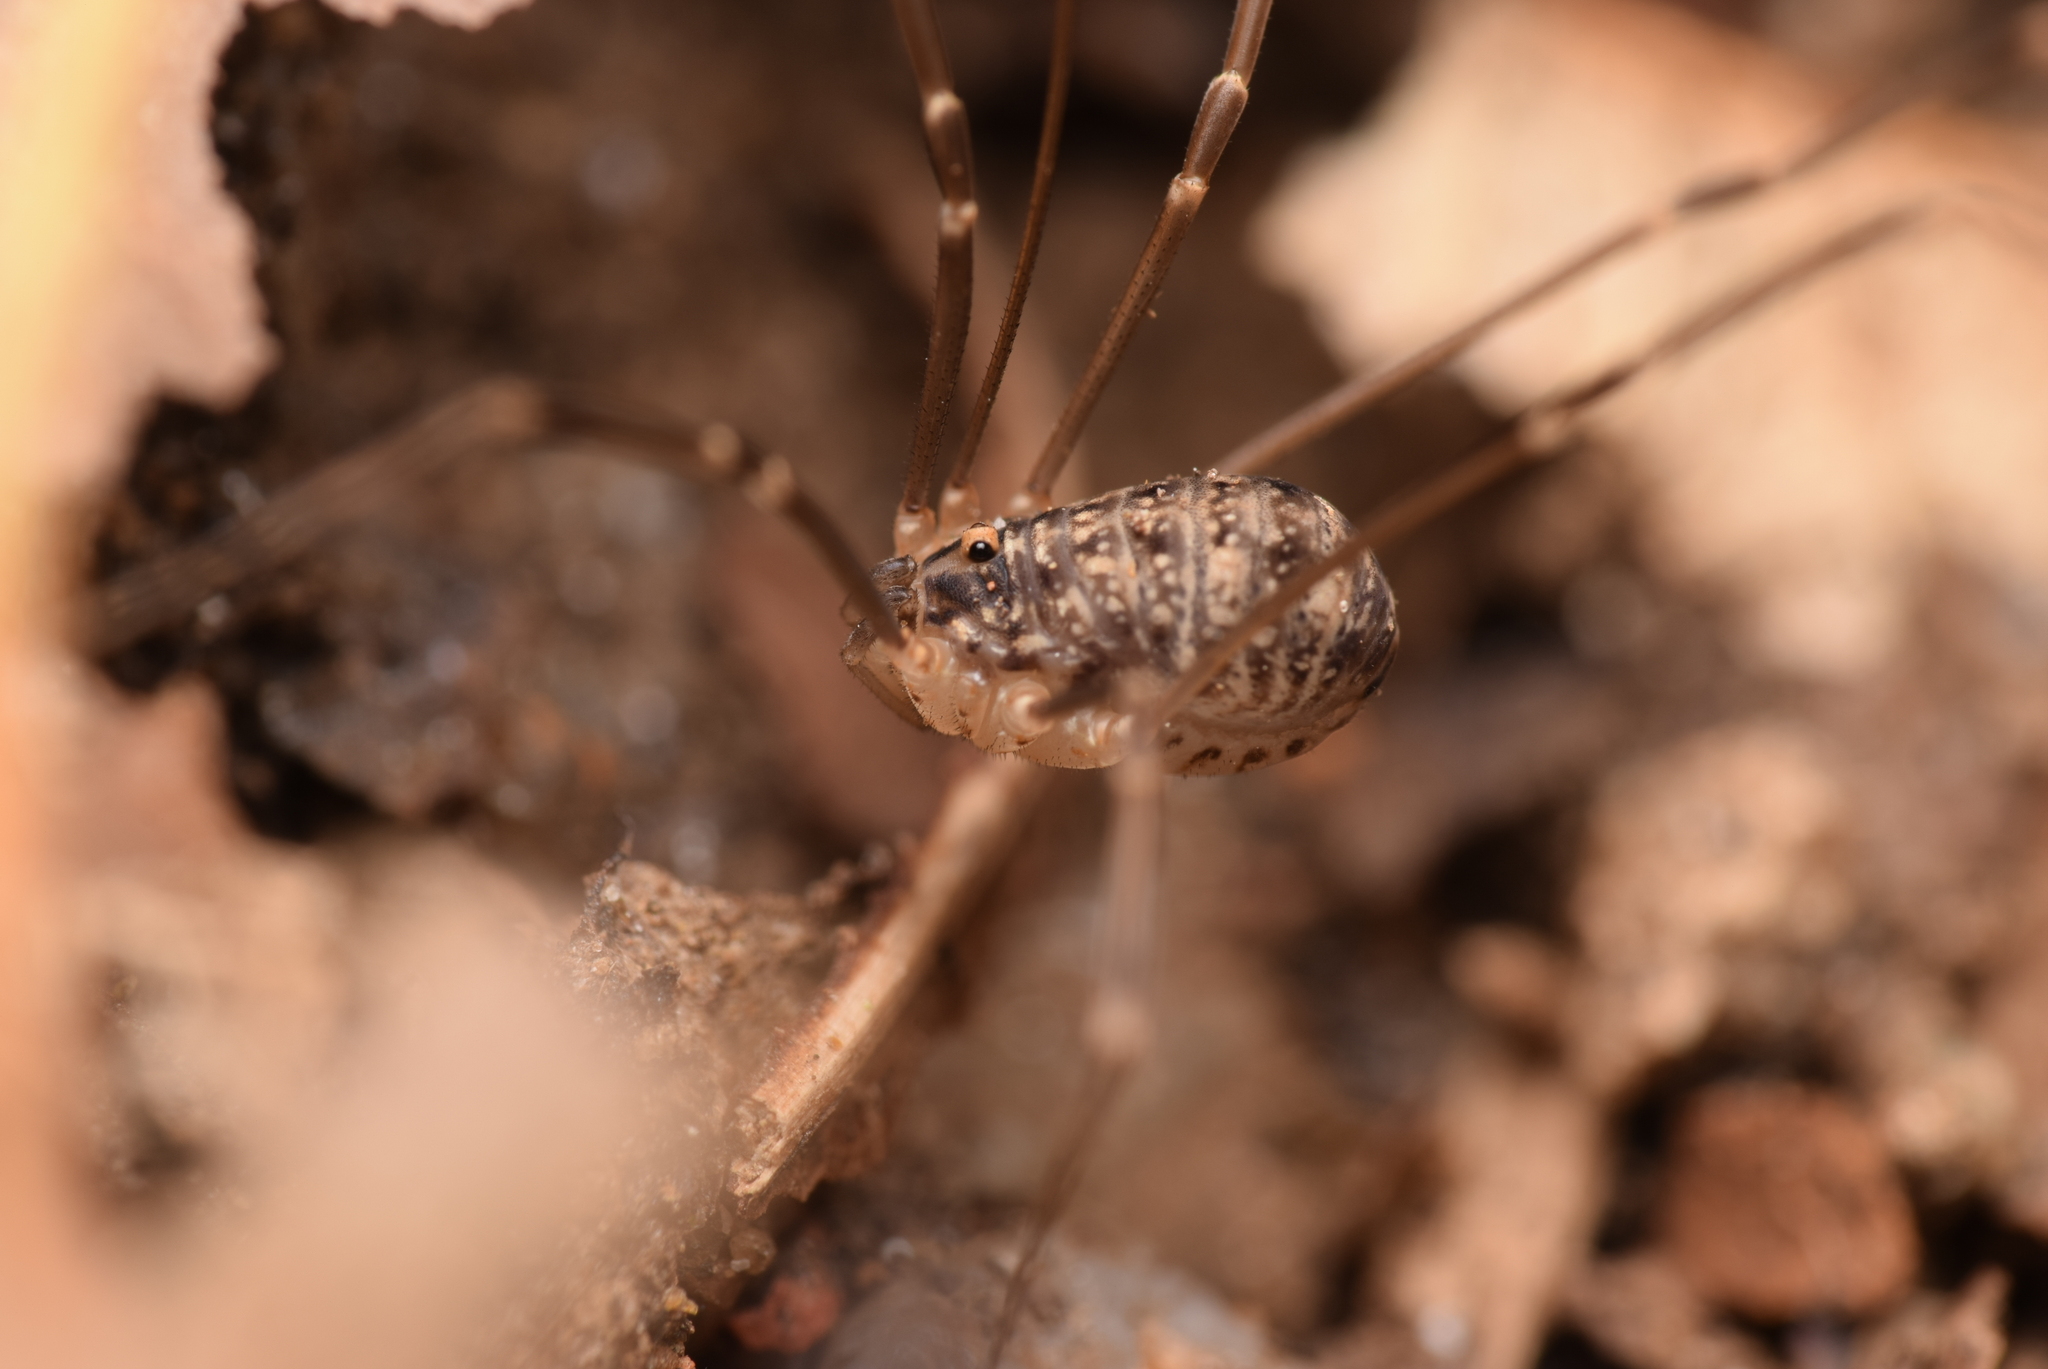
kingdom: Animalia
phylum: Arthropoda
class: Arachnida
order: Opiliones
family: Sclerosomatidae
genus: Nelima
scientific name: Nelima silvatica
